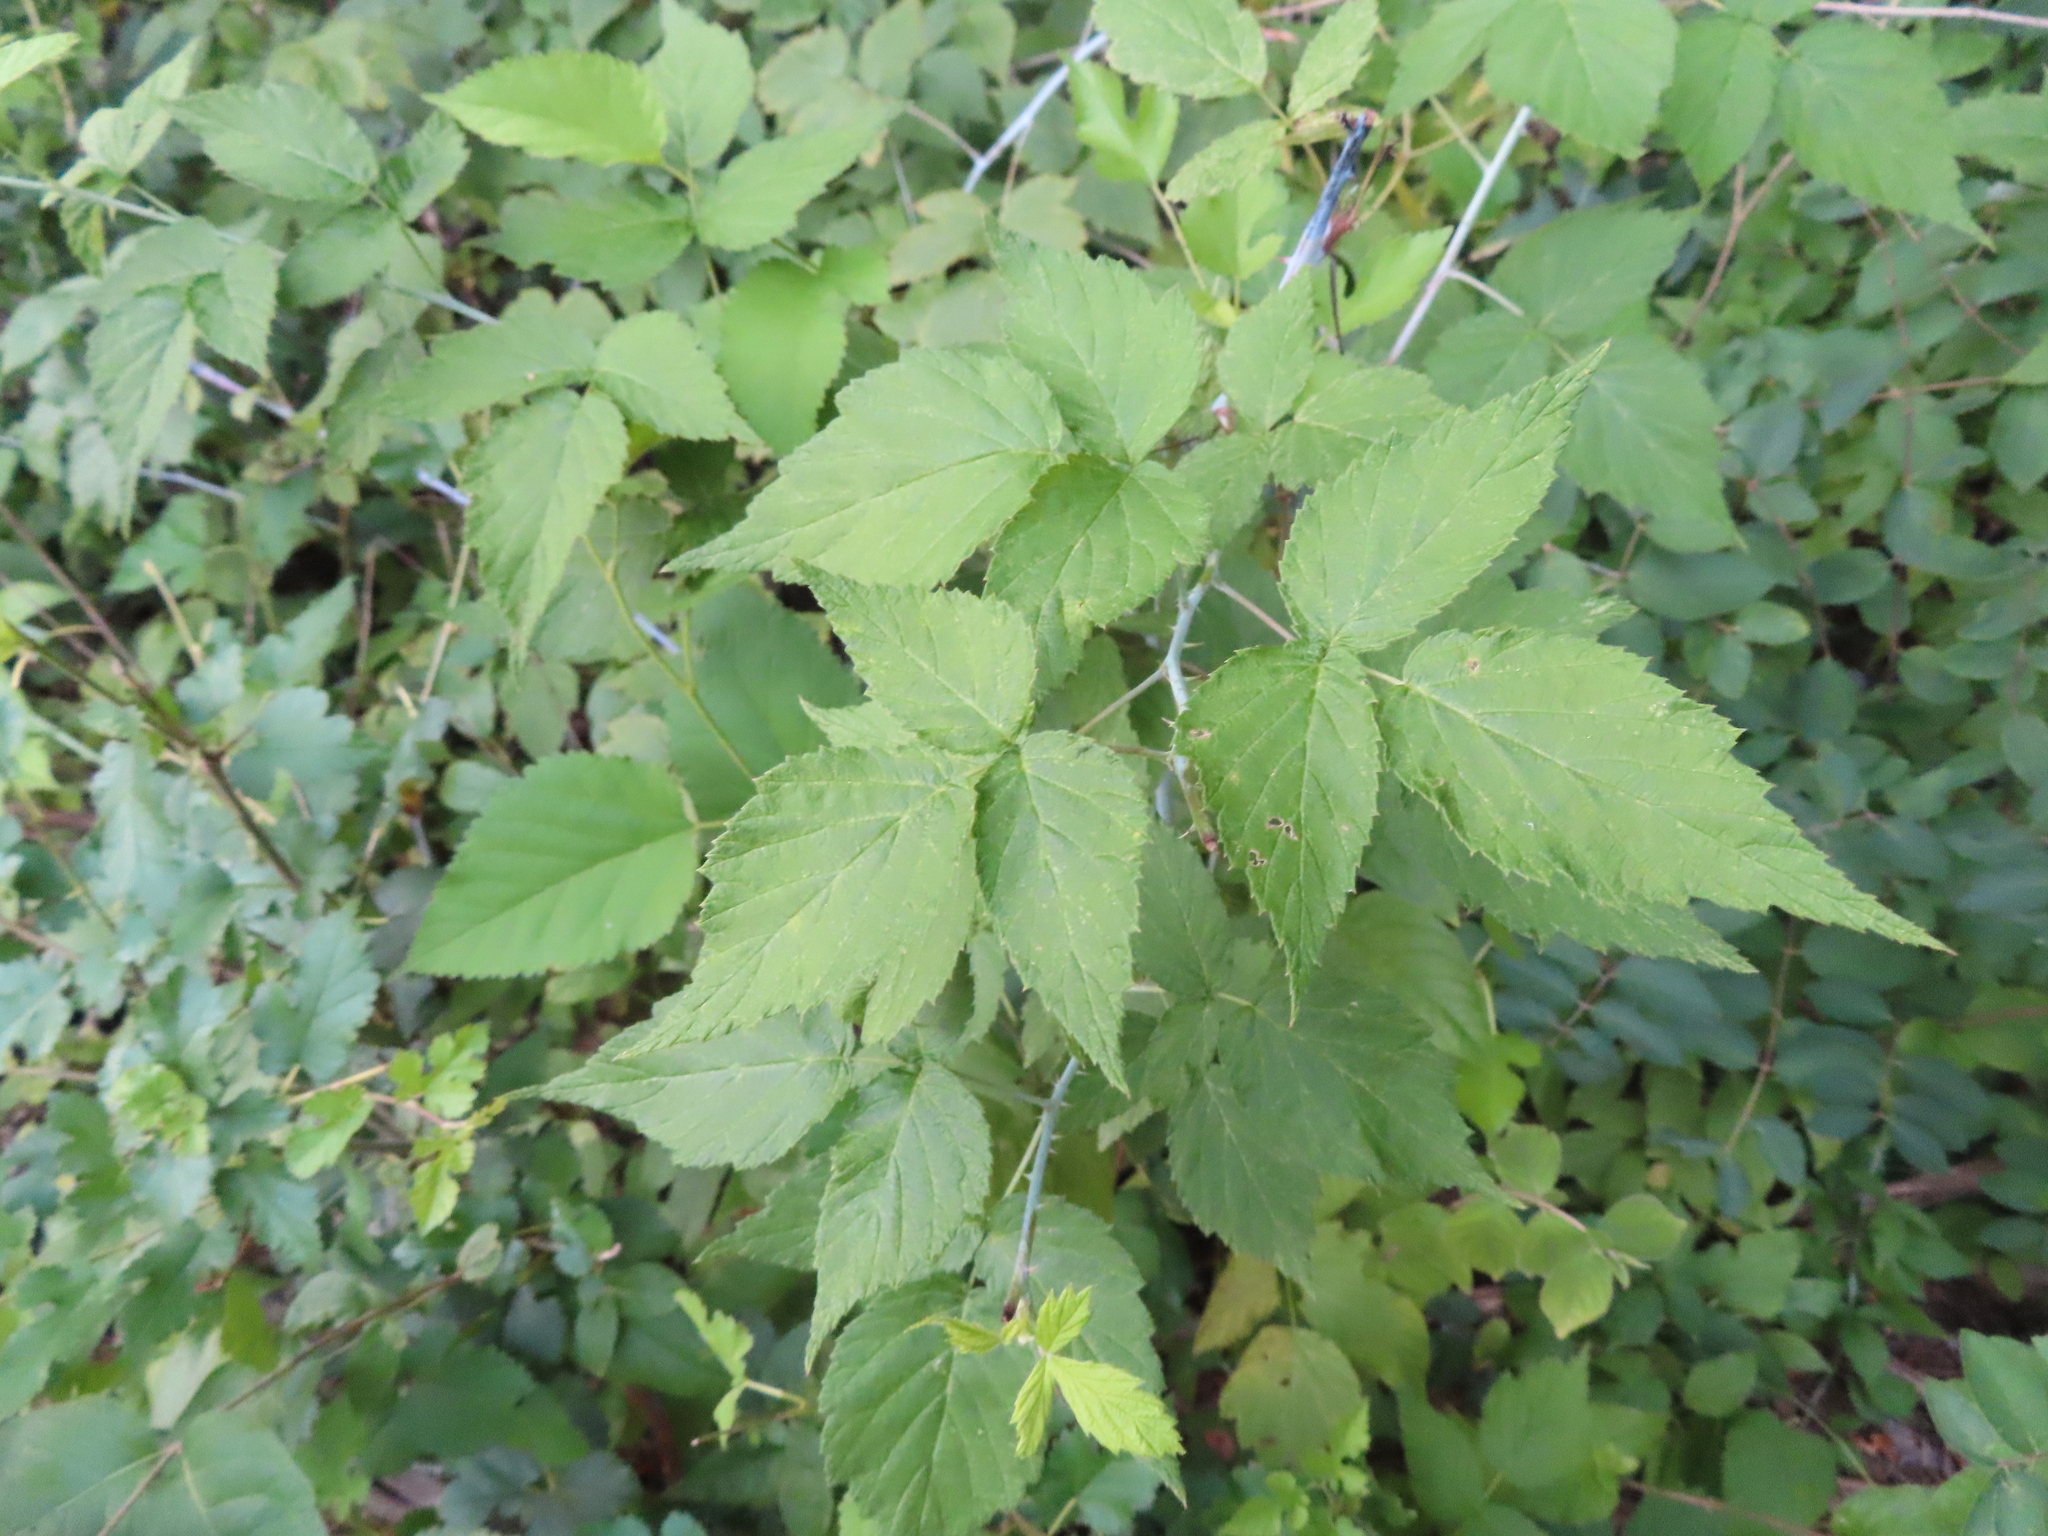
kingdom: Plantae
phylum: Tracheophyta
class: Magnoliopsida
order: Rosales
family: Rosaceae
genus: Rubus
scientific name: Rubus occidentalis
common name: Black raspberry
